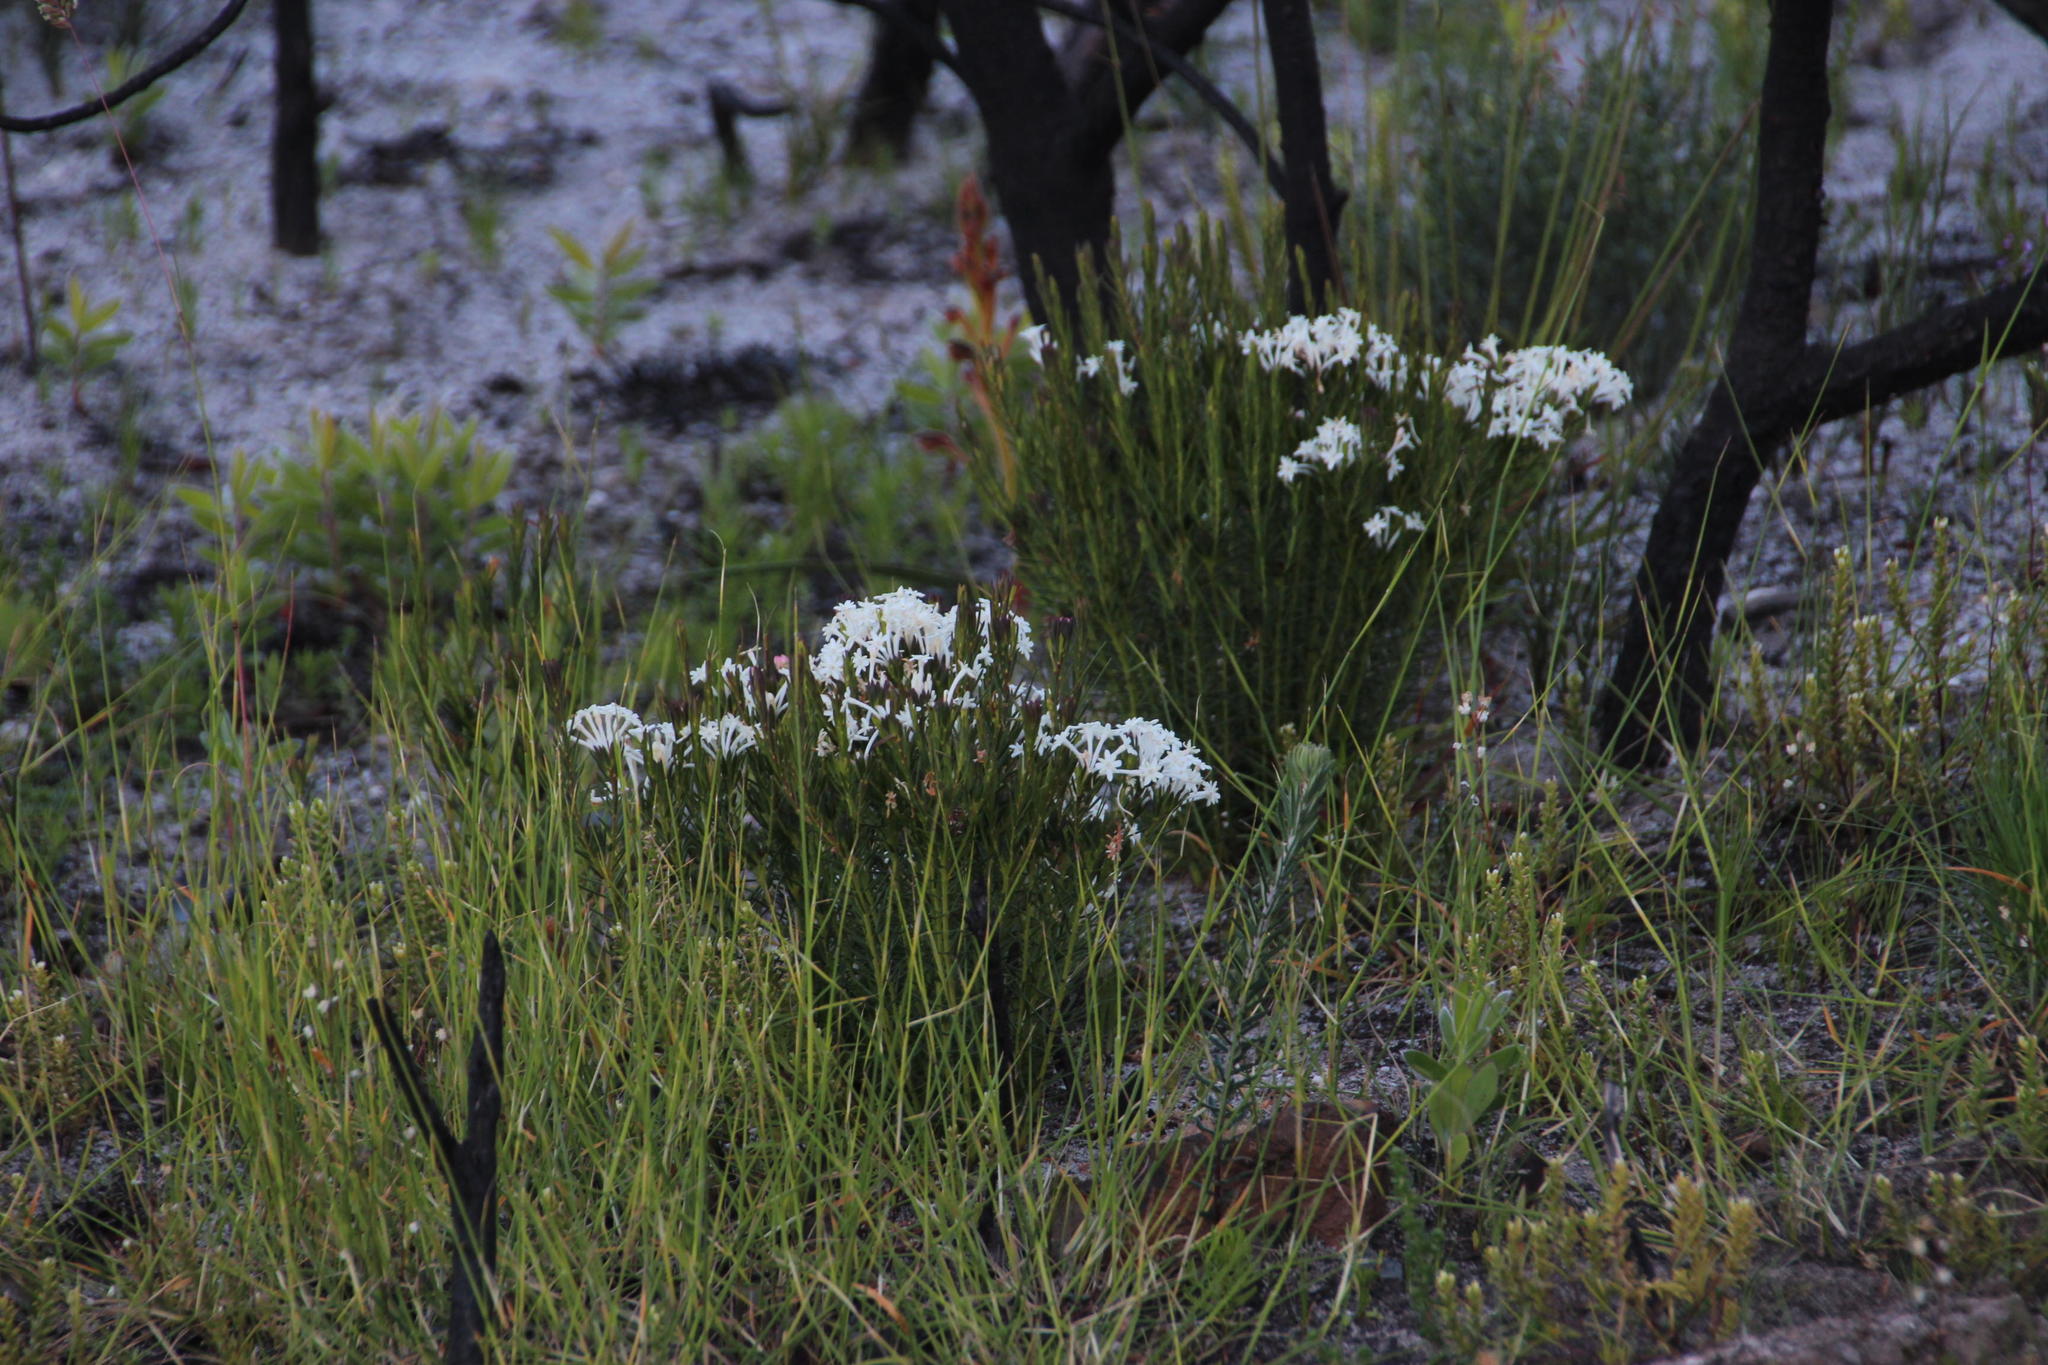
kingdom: Plantae
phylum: Tracheophyta
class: Magnoliopsida
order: Malvales
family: Thymelaeaceae
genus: Gnidia
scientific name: Gnidia pinifolia
